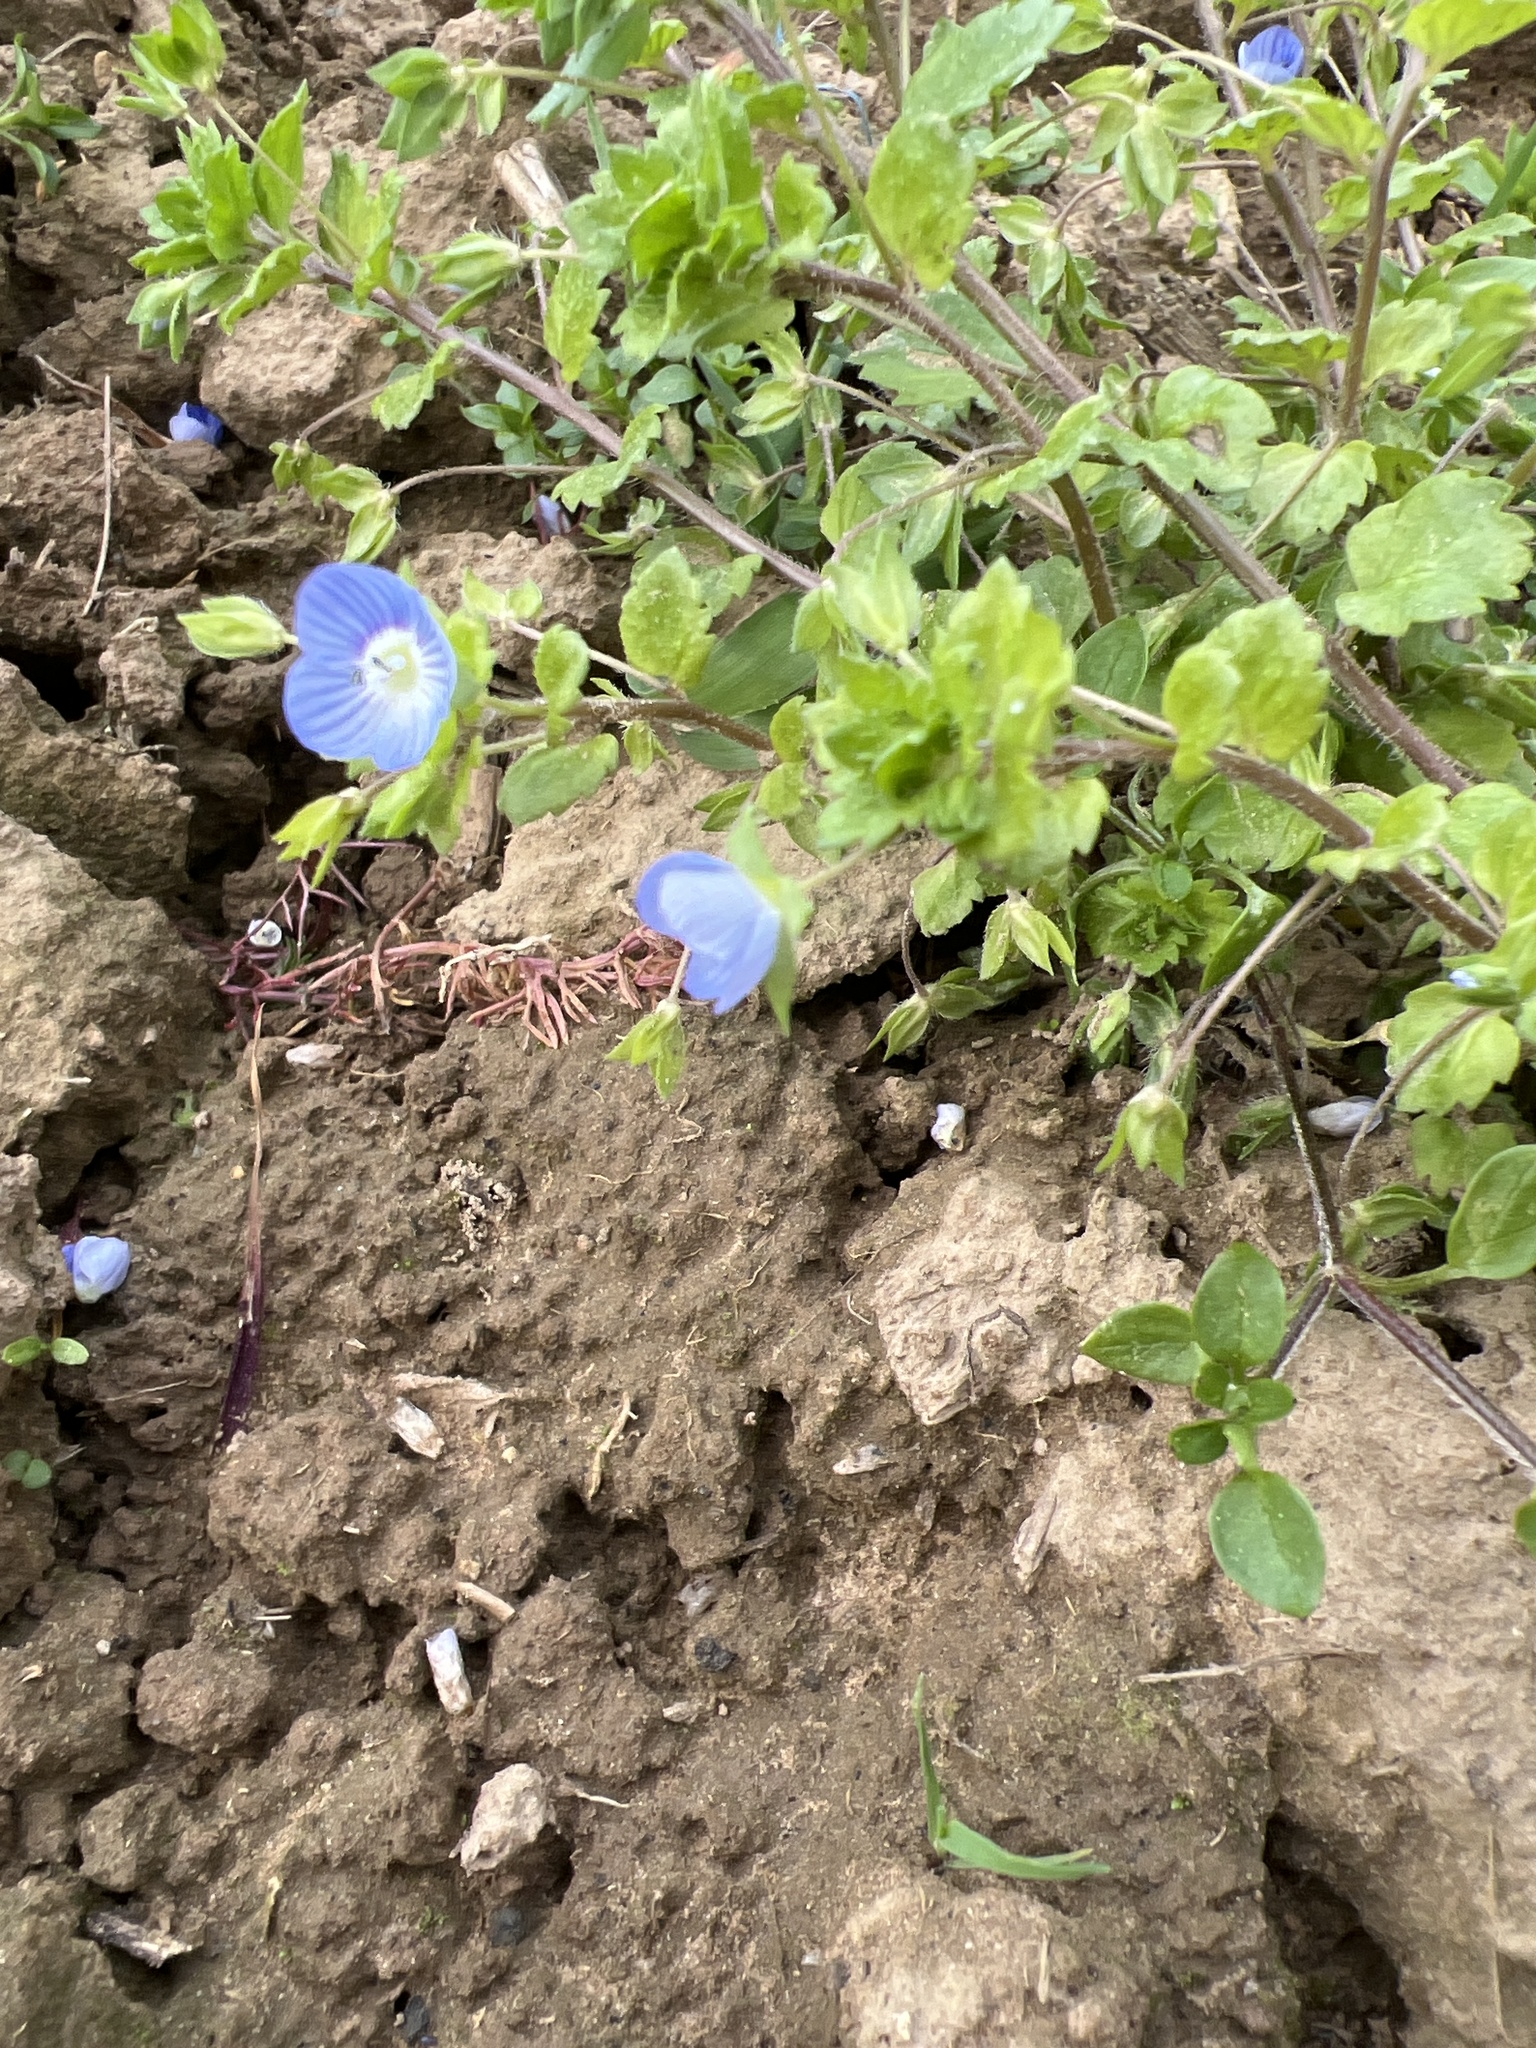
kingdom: Plantae
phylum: Tracheophyta
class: Magnoliopsida
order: Lamiales
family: Plantaginaceae
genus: Veronica
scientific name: Veronica persica
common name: Common field-speedwell
